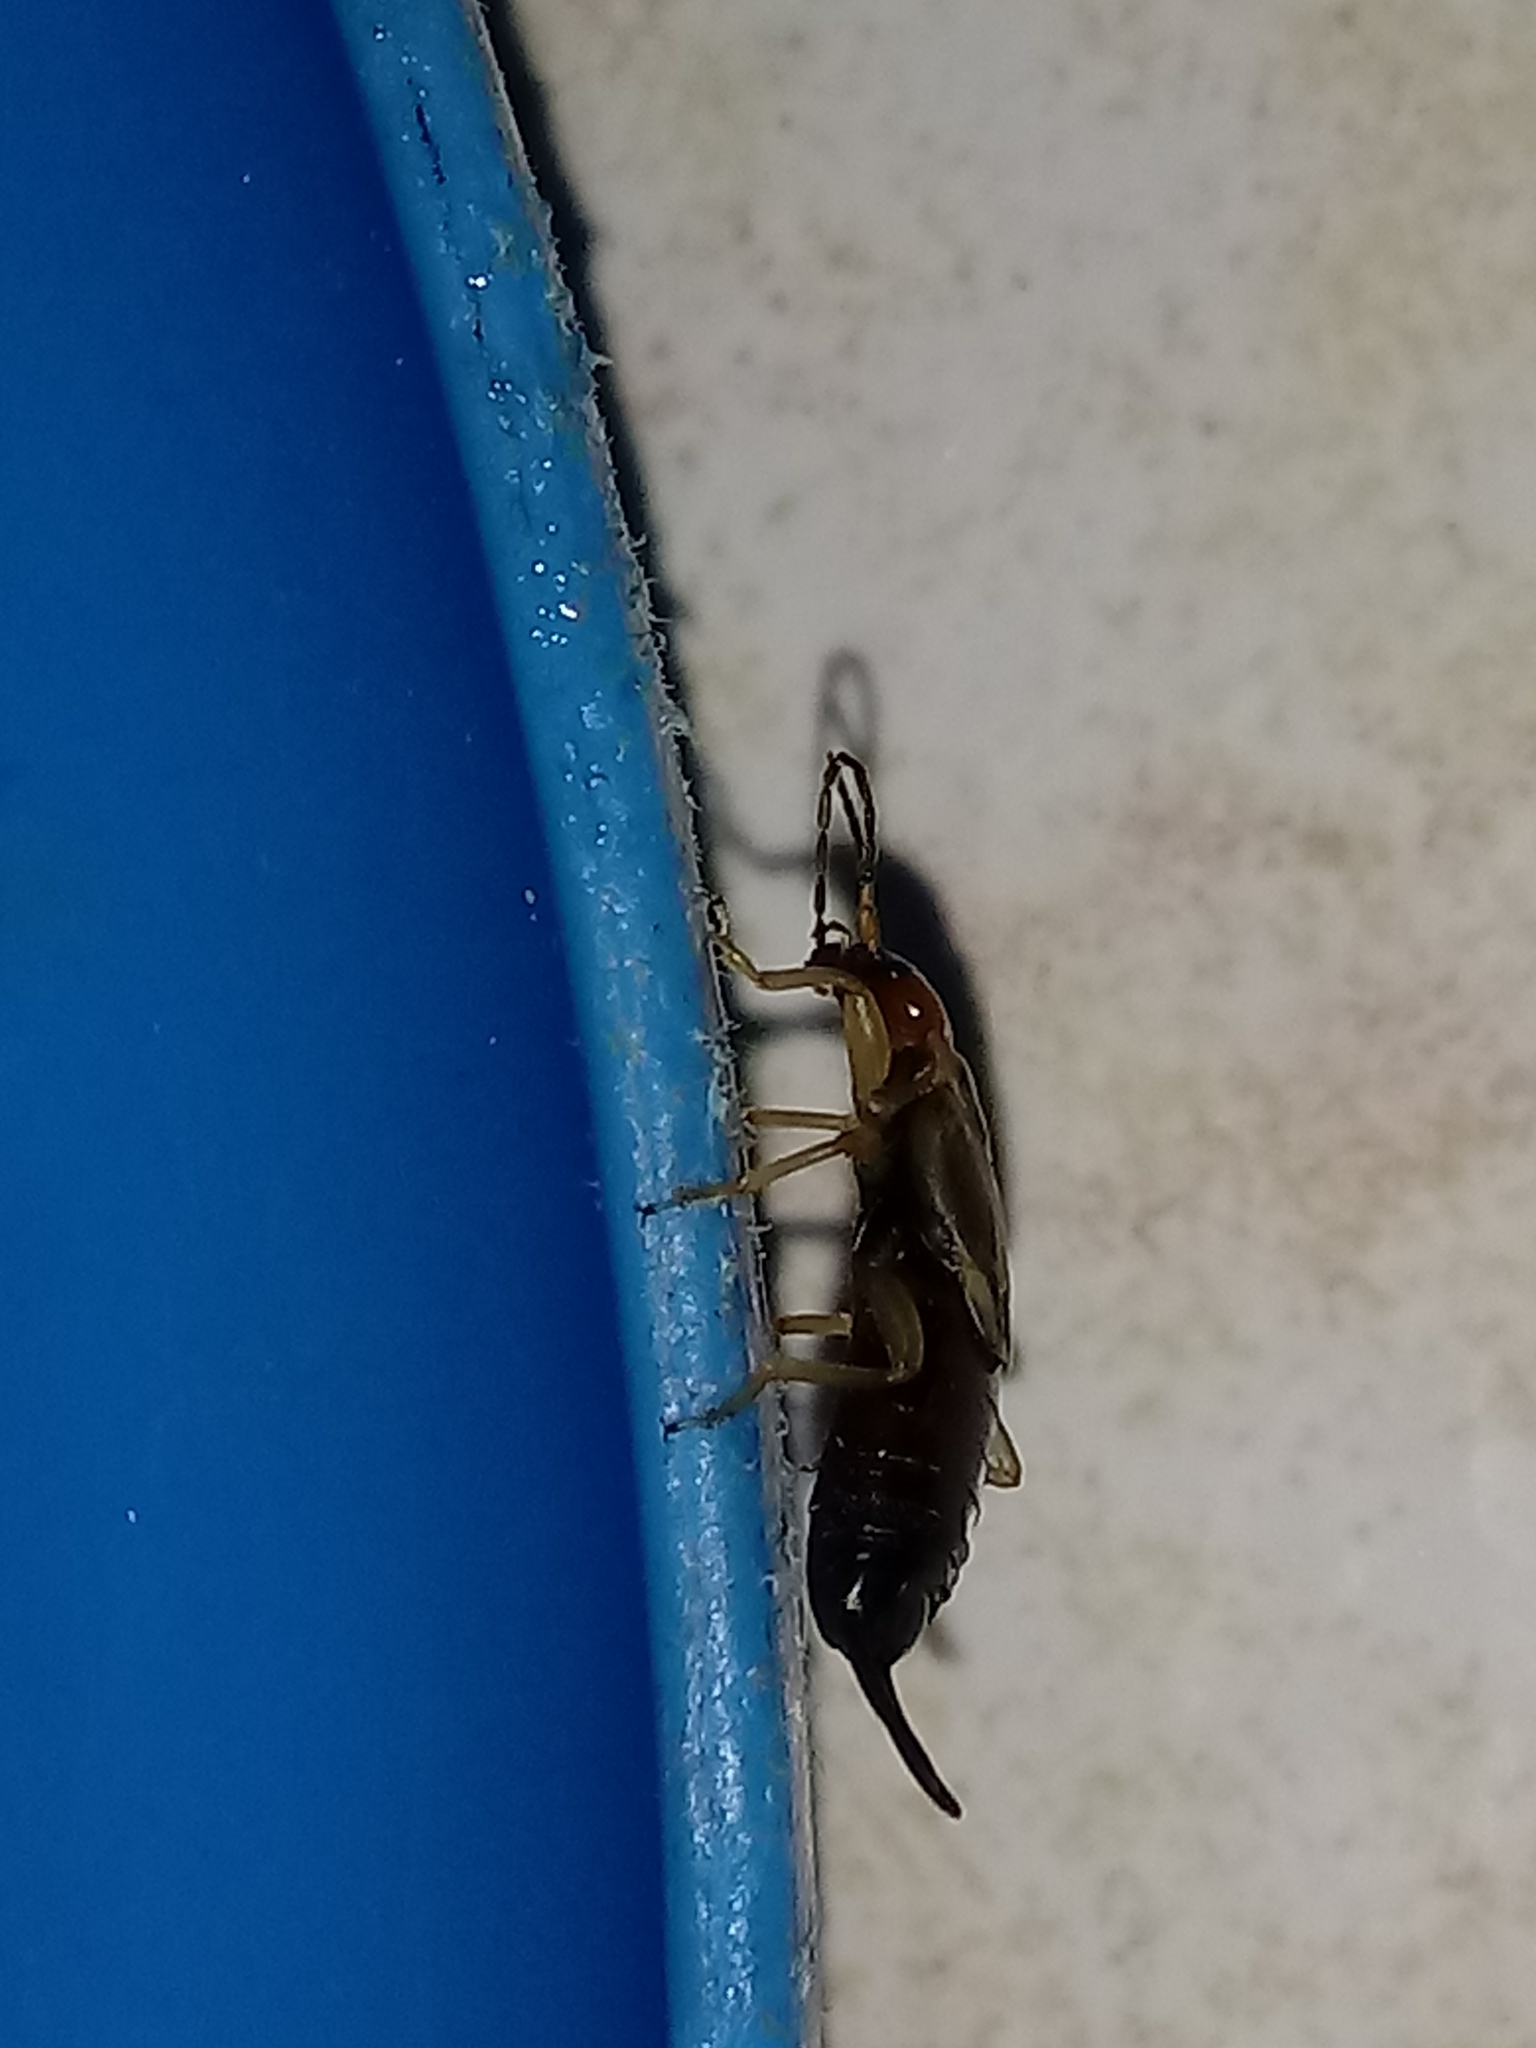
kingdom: Animalia
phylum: Arthropoda
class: Insecta
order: Dermaptera
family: Forficulidae
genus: Forficula
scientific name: Forficula
